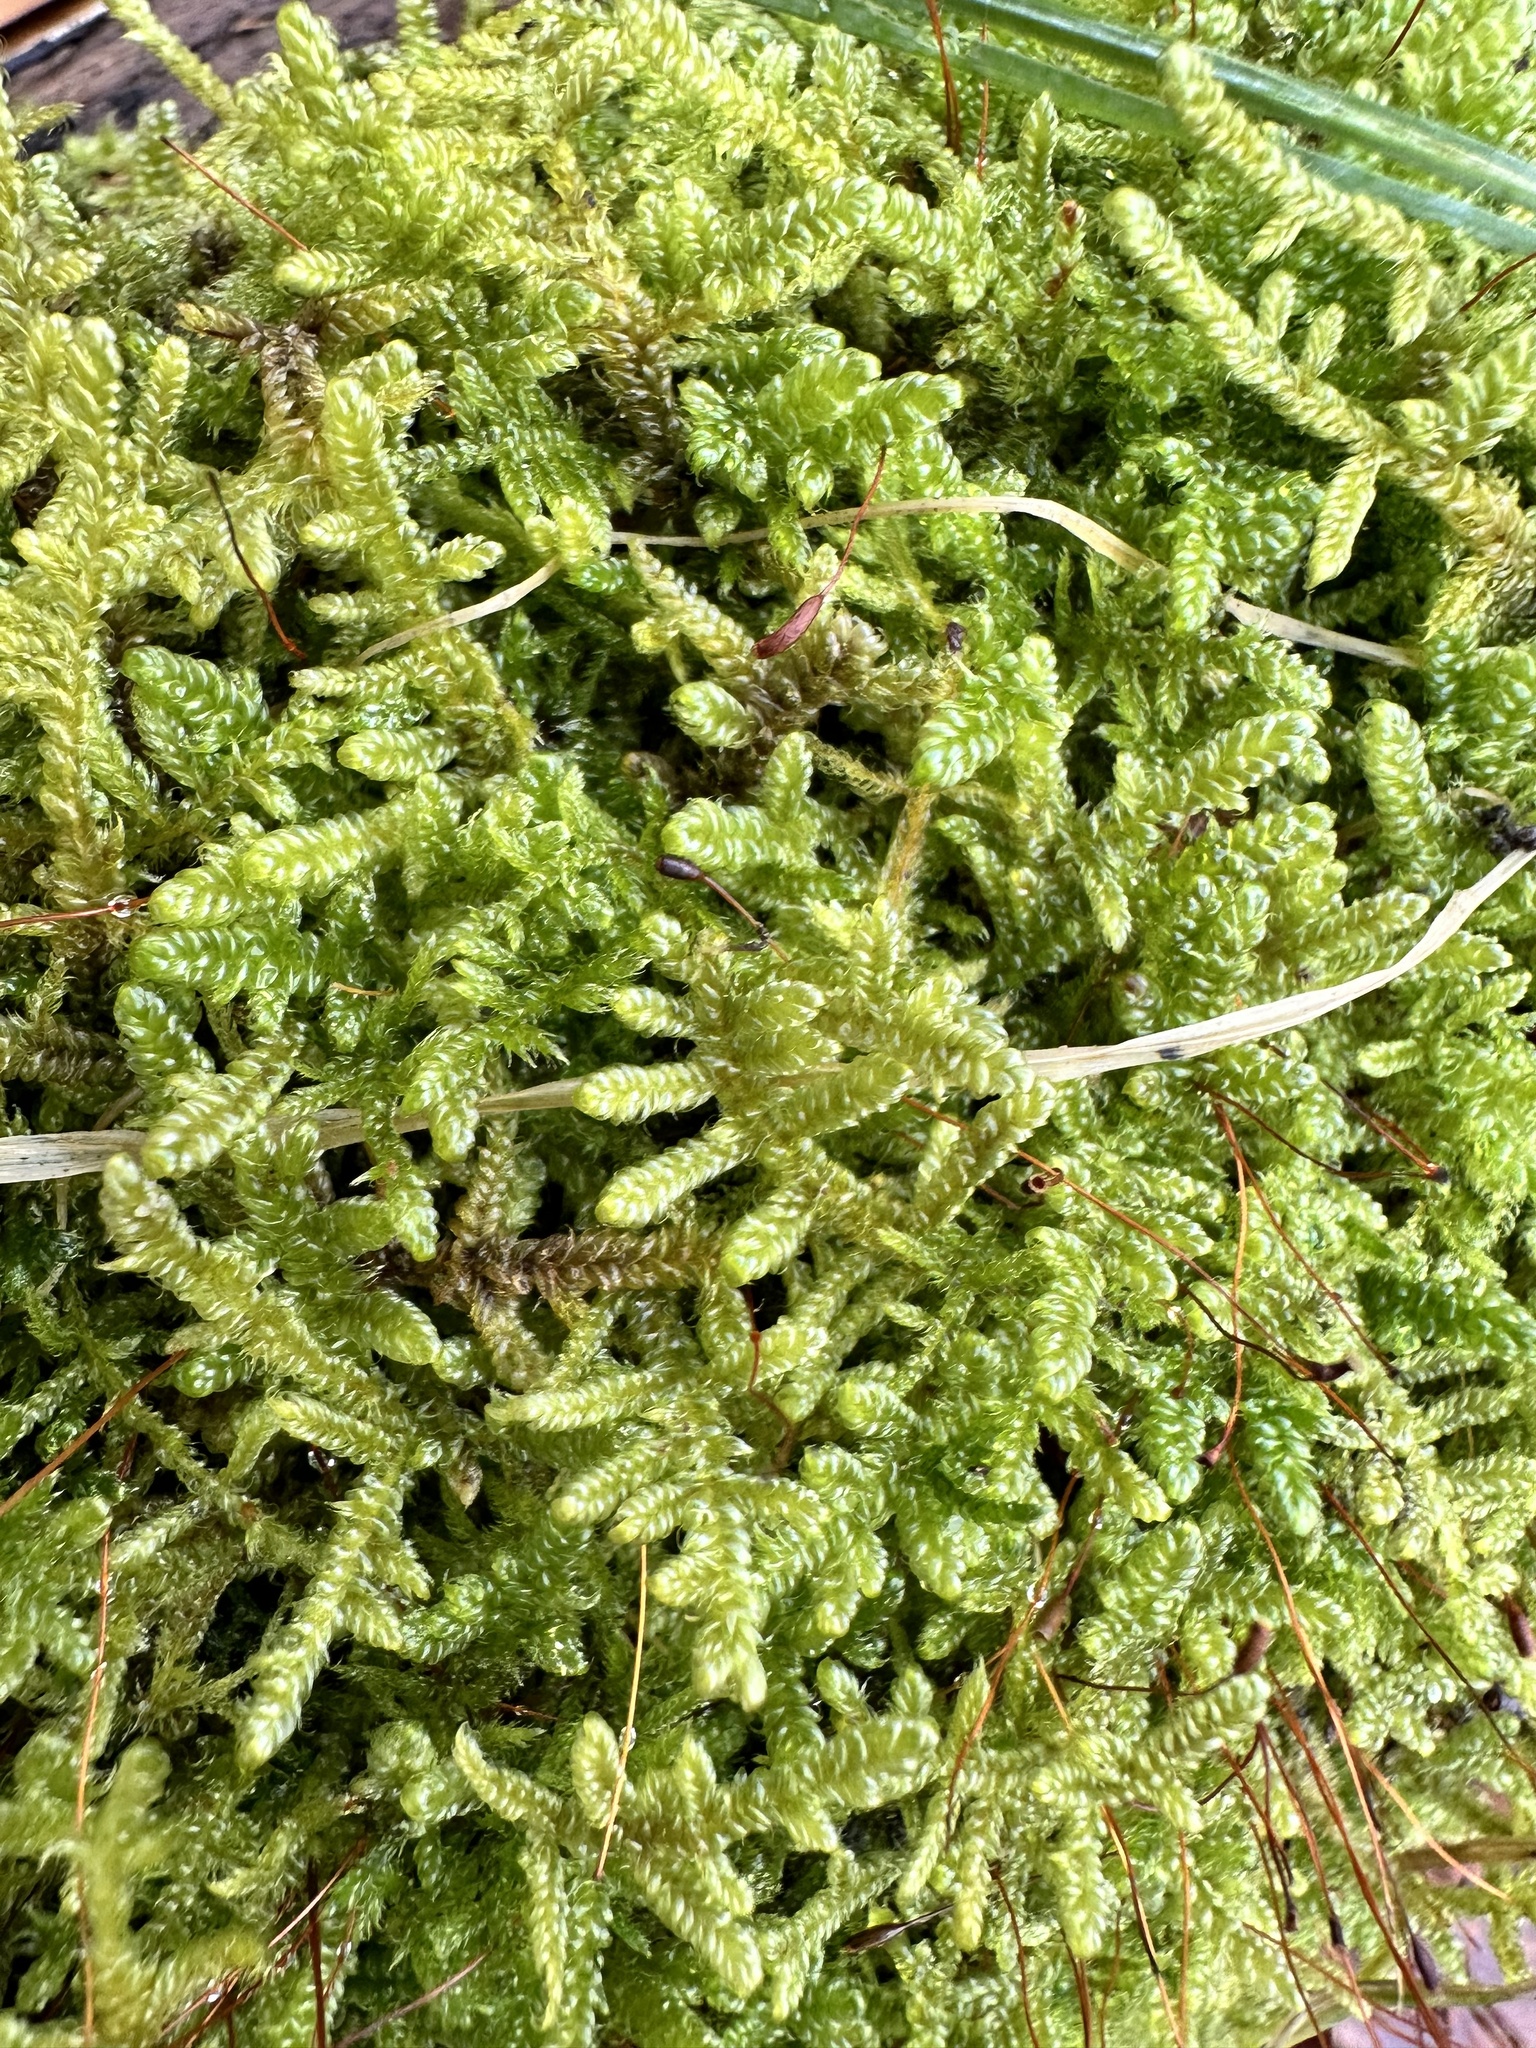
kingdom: Plantae
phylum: Bryophyta
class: Bryopsida
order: Hypnales
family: Hypnaceae
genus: Hypnum
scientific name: Hypnum cupressiforme
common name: Cypress-leaved plait-moss
